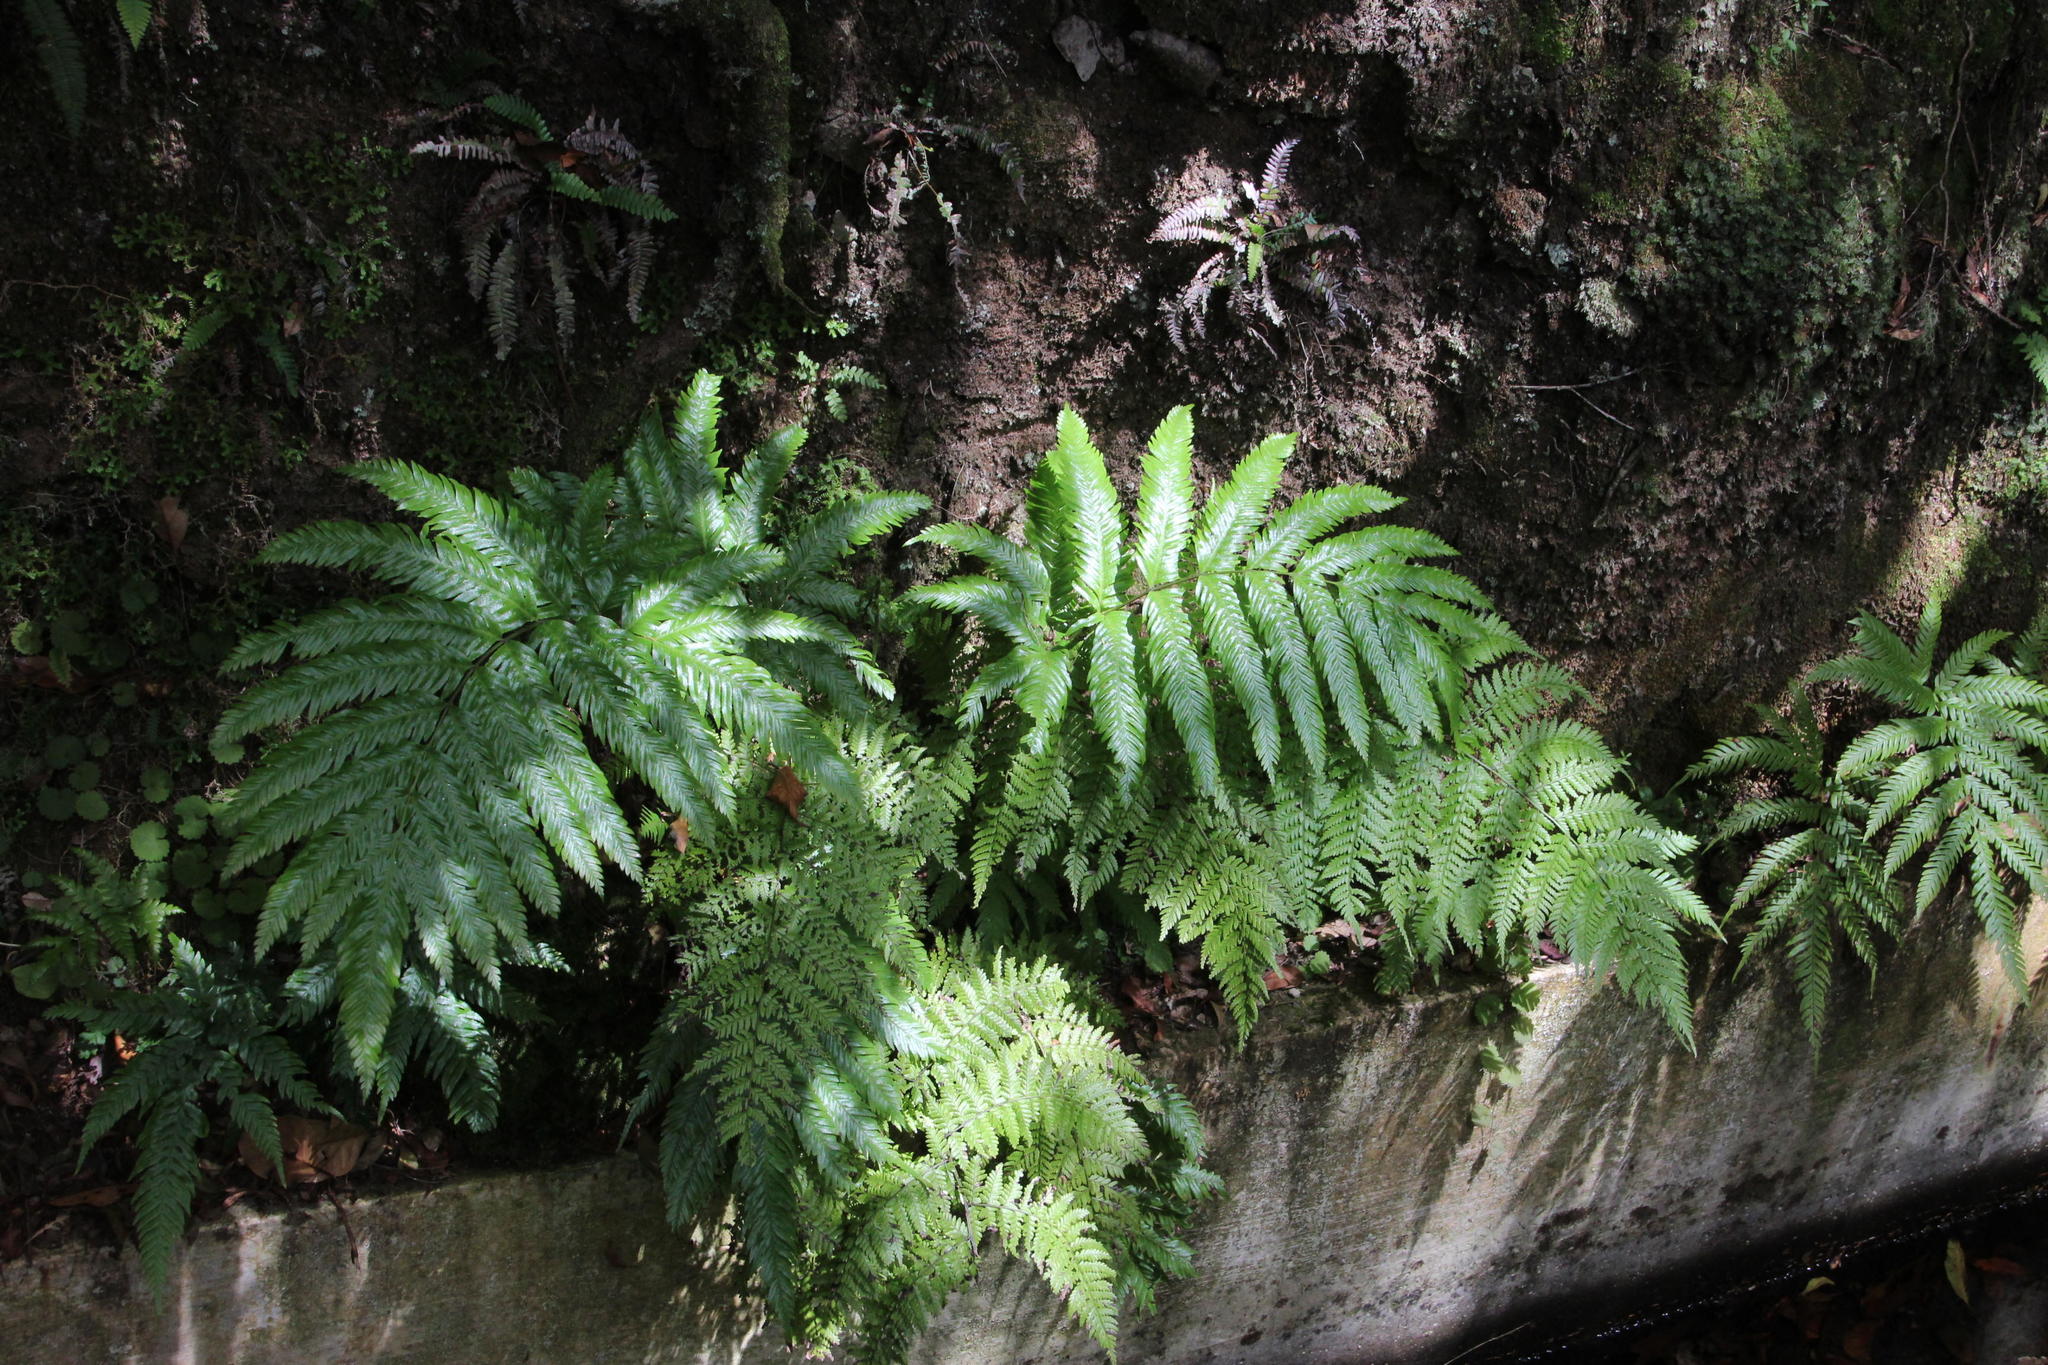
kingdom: Plantae
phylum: Tracheophyta
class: Polypodiopsida
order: Polypodiales
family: Athyriaceae
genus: Diplazium
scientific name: Diplazium caudatum
